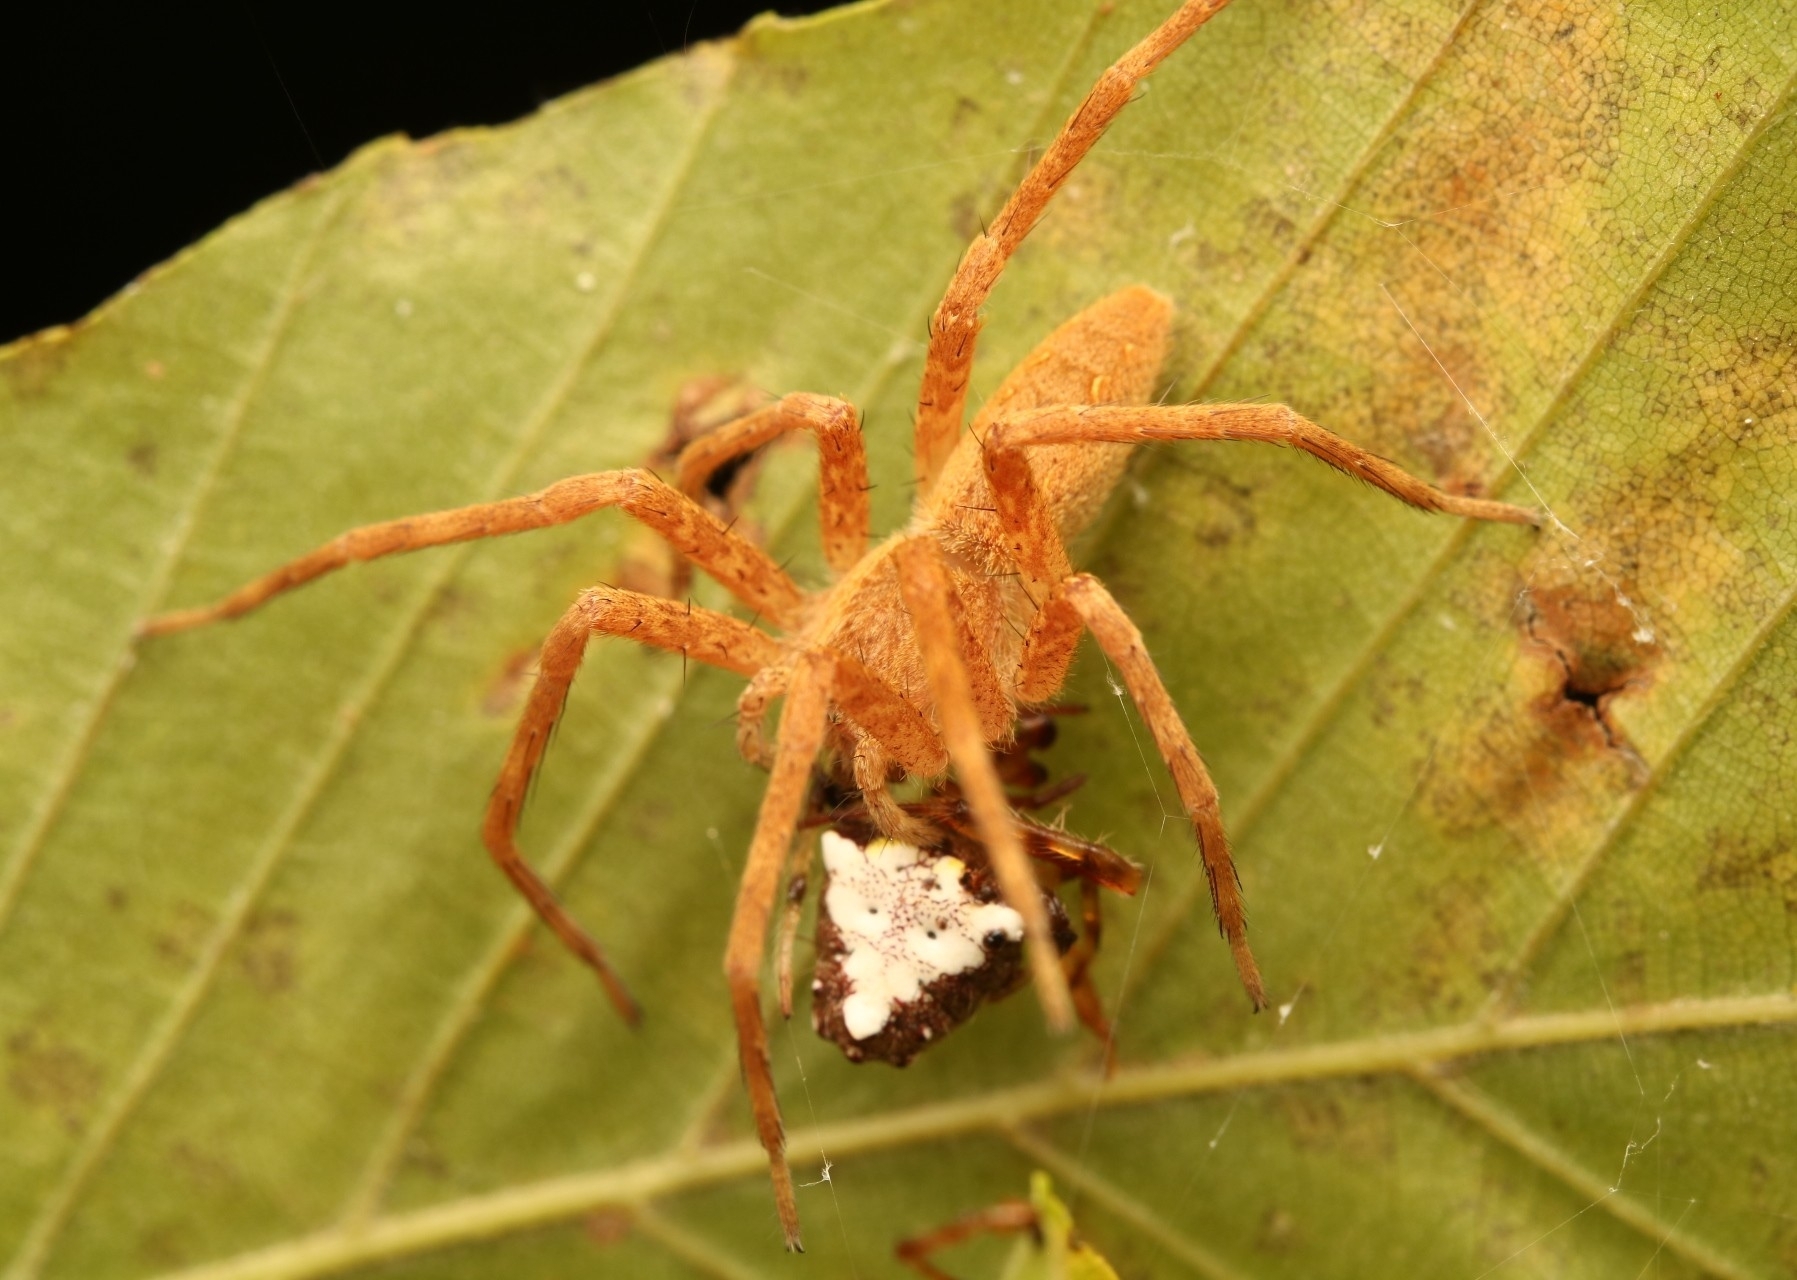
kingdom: Animalia
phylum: Arthropoda
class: Arachnida
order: Araneae
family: Araneidae
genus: Verrucosa
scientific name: Verrucosa arenata
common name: Orb weavers
